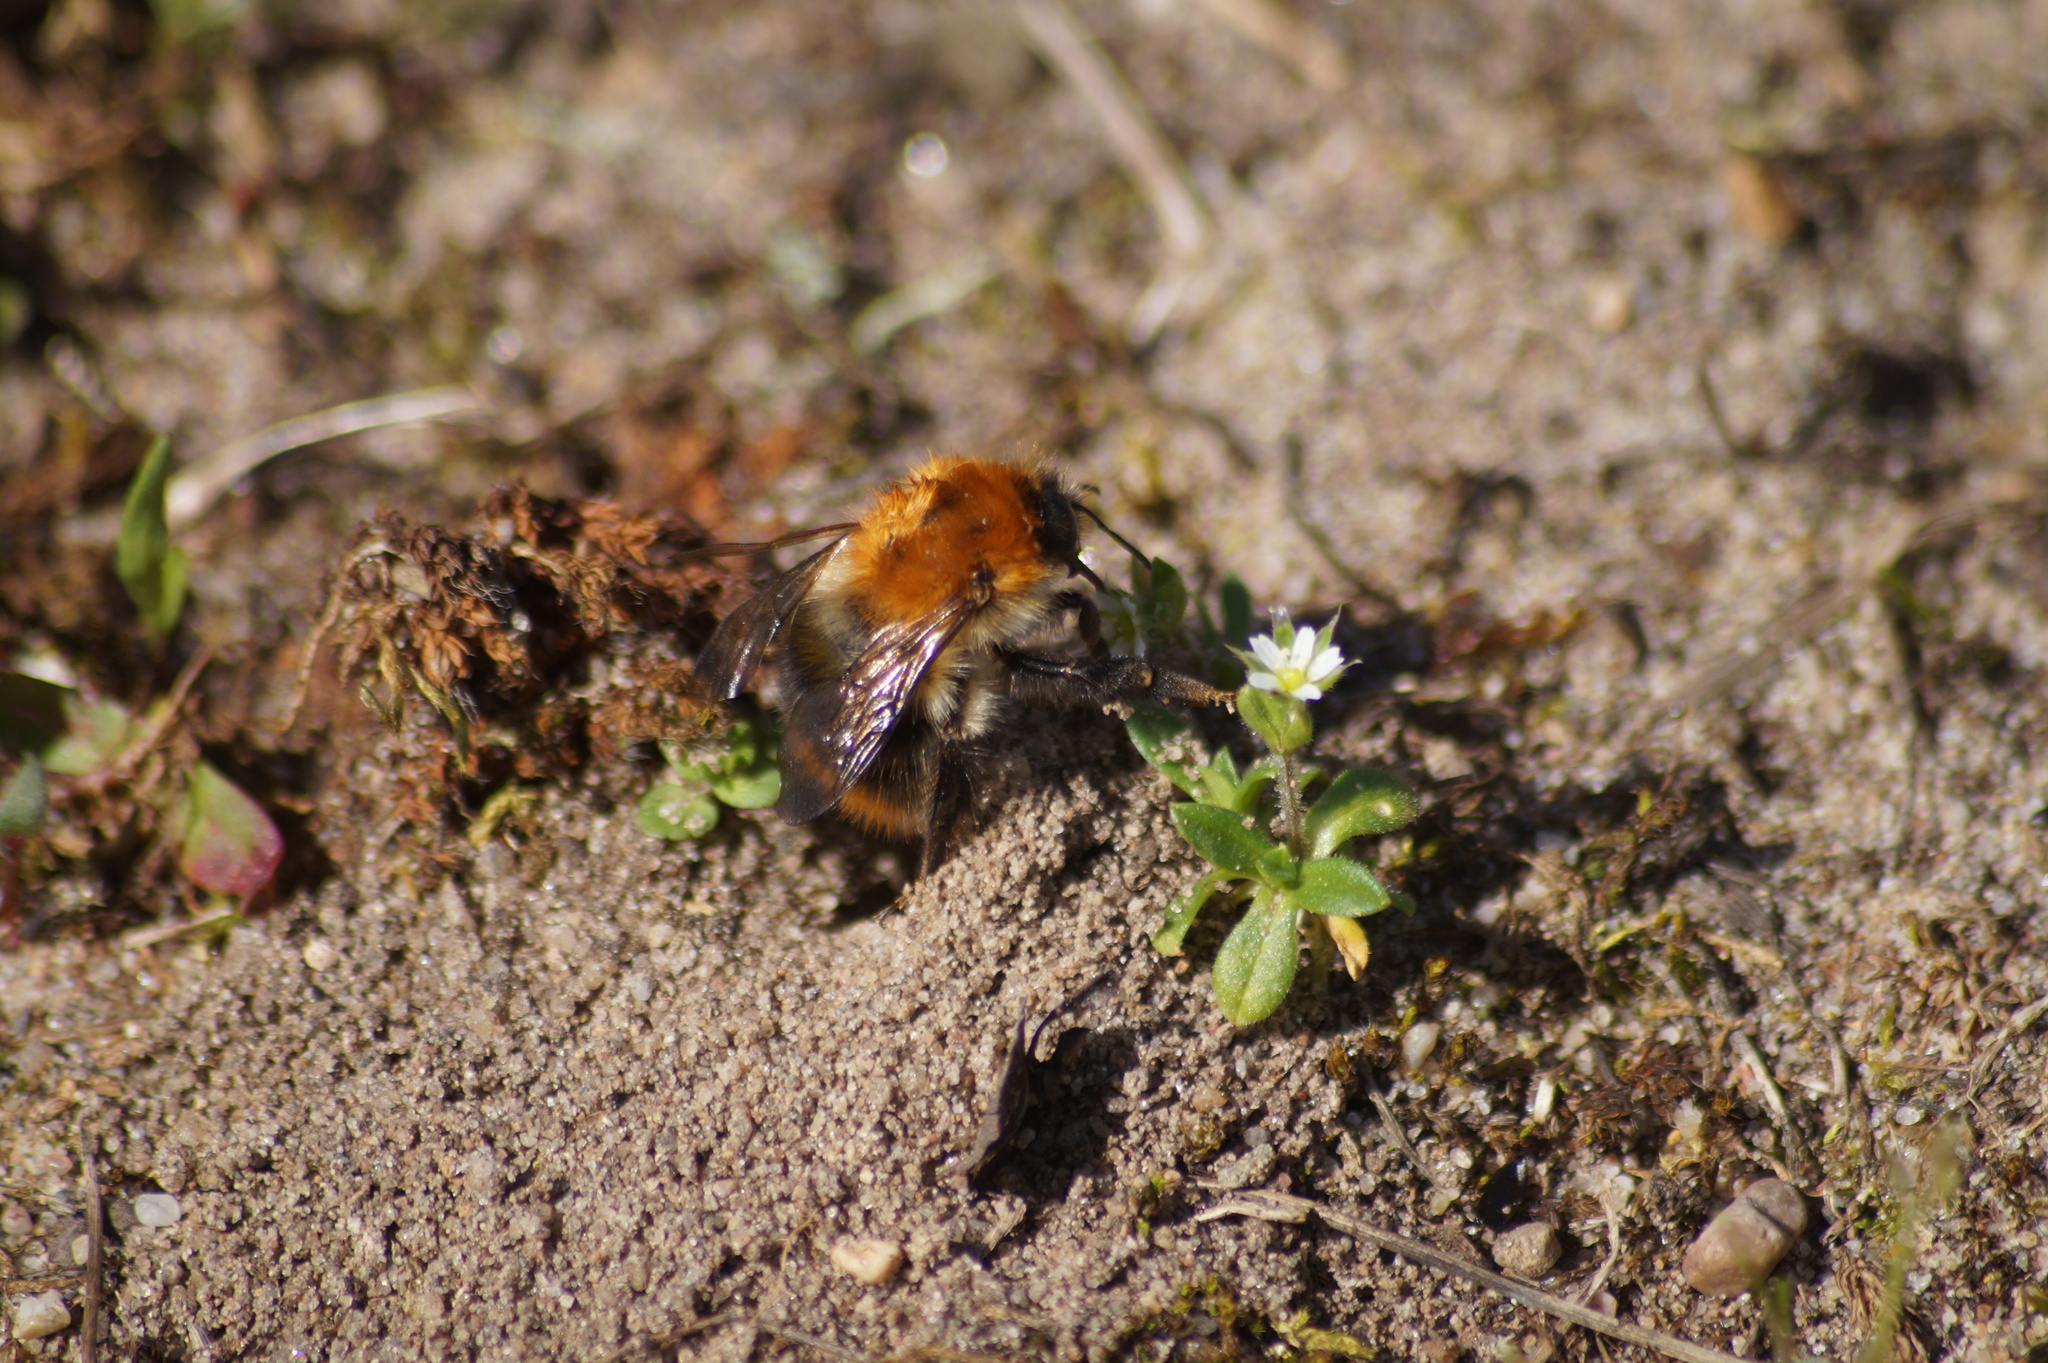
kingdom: Animalia
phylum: Arthropoda
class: Insecta
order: Hymenoptera
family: Apidae
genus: Bombus
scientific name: Bombus pascuorum
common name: Common carder bee
